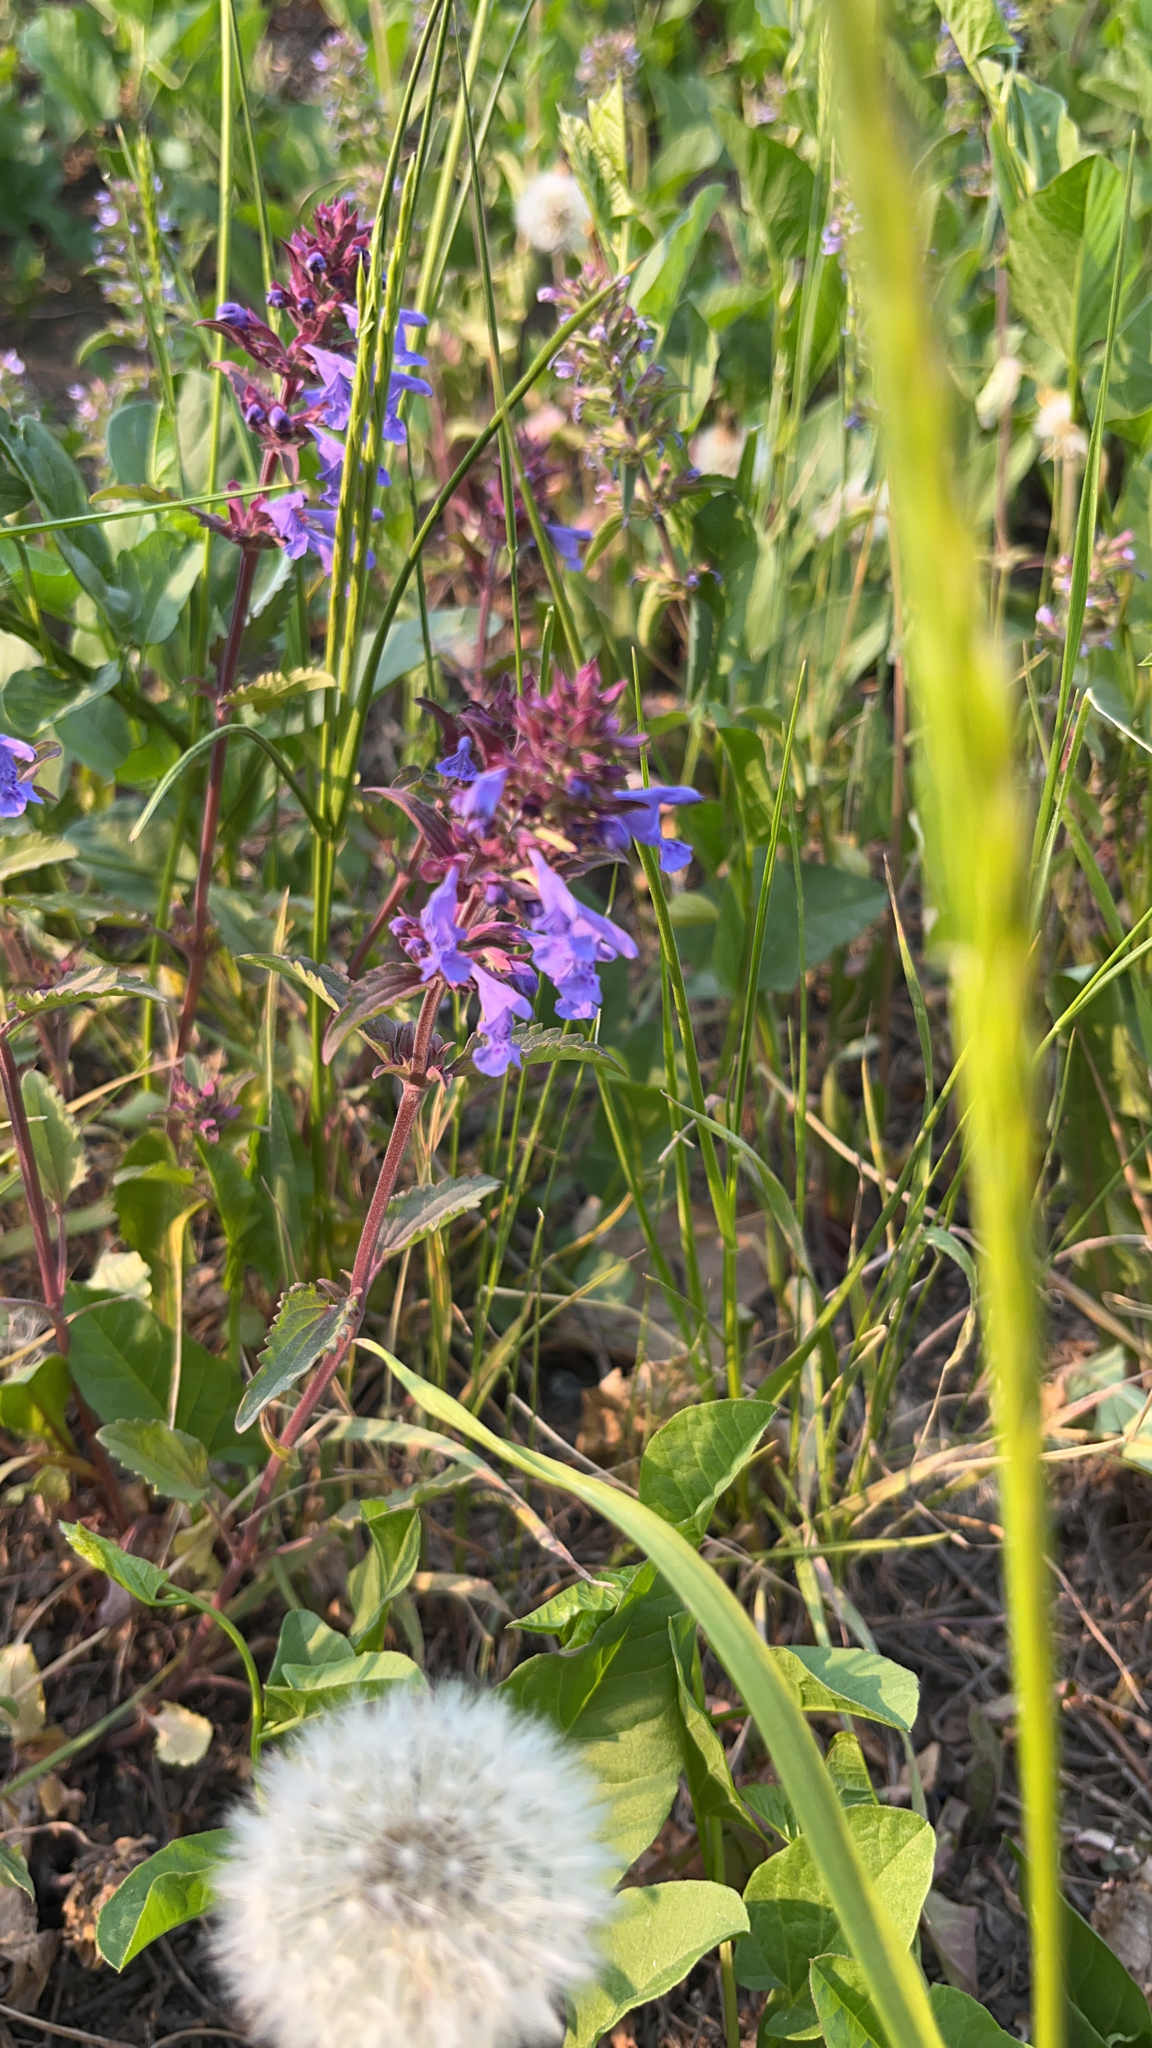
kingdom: Plantae
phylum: Tracheophyta
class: Magnoliopsida
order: Lamiales
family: Lamiaceae
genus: Dracocephalum
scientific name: Dracocephalum nutans
